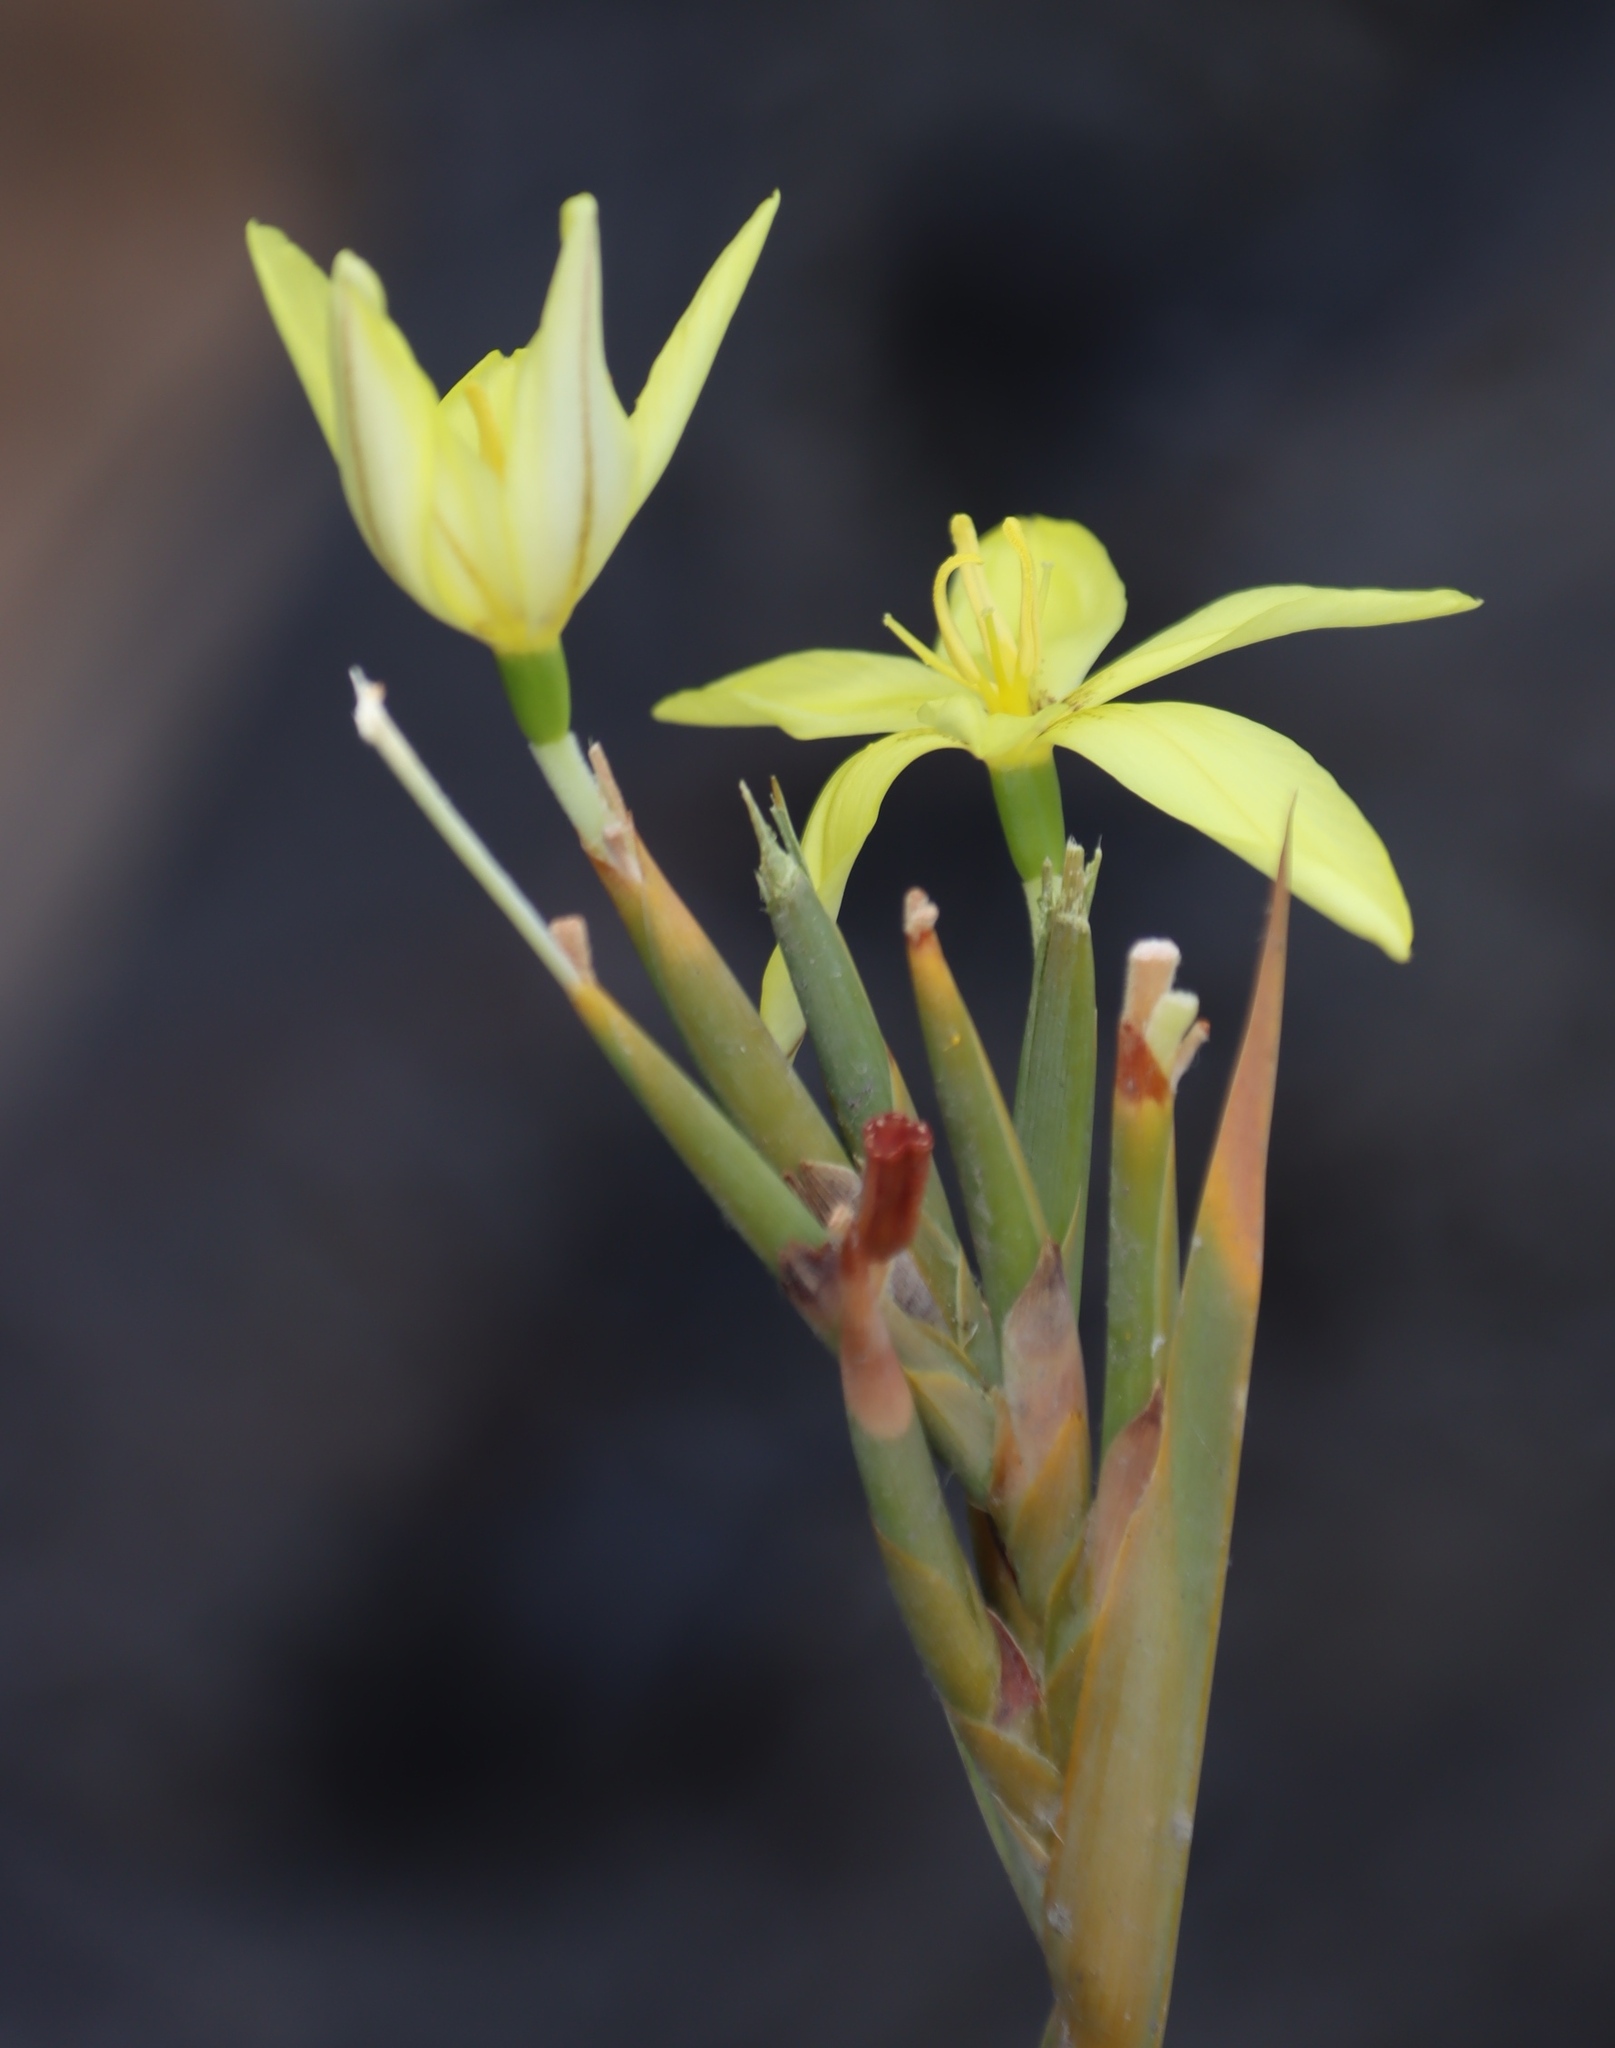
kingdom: Plantae
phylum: Tracheophyta
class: Liliopsida
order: Asparagales
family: Iridaceae
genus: Bobartia
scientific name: Bobartia gladiata
